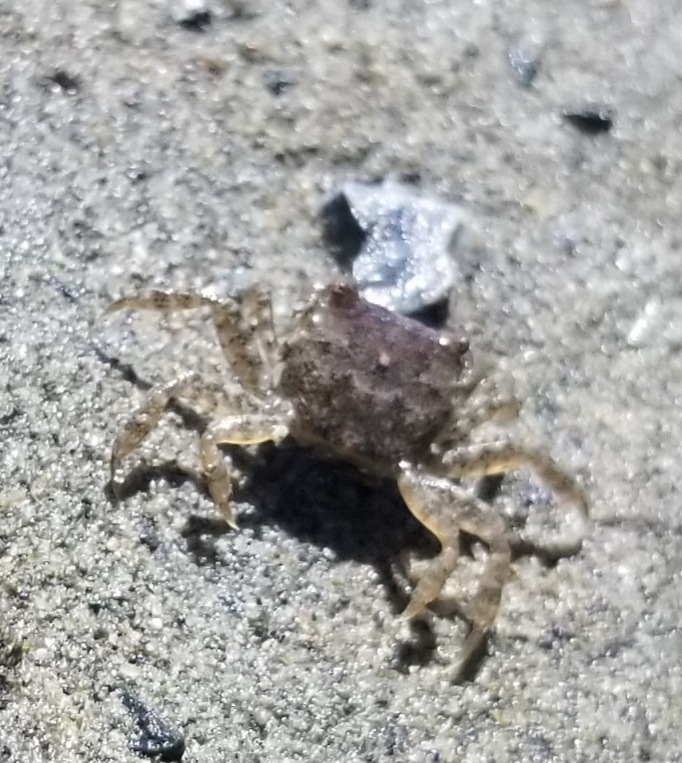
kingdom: Animalia
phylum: Arthropoda
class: Malacostraca
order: Decapoda
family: Varunidae
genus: Hemigrapsus
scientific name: Hemigrapsus oregonensis
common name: Yellow shore crab
